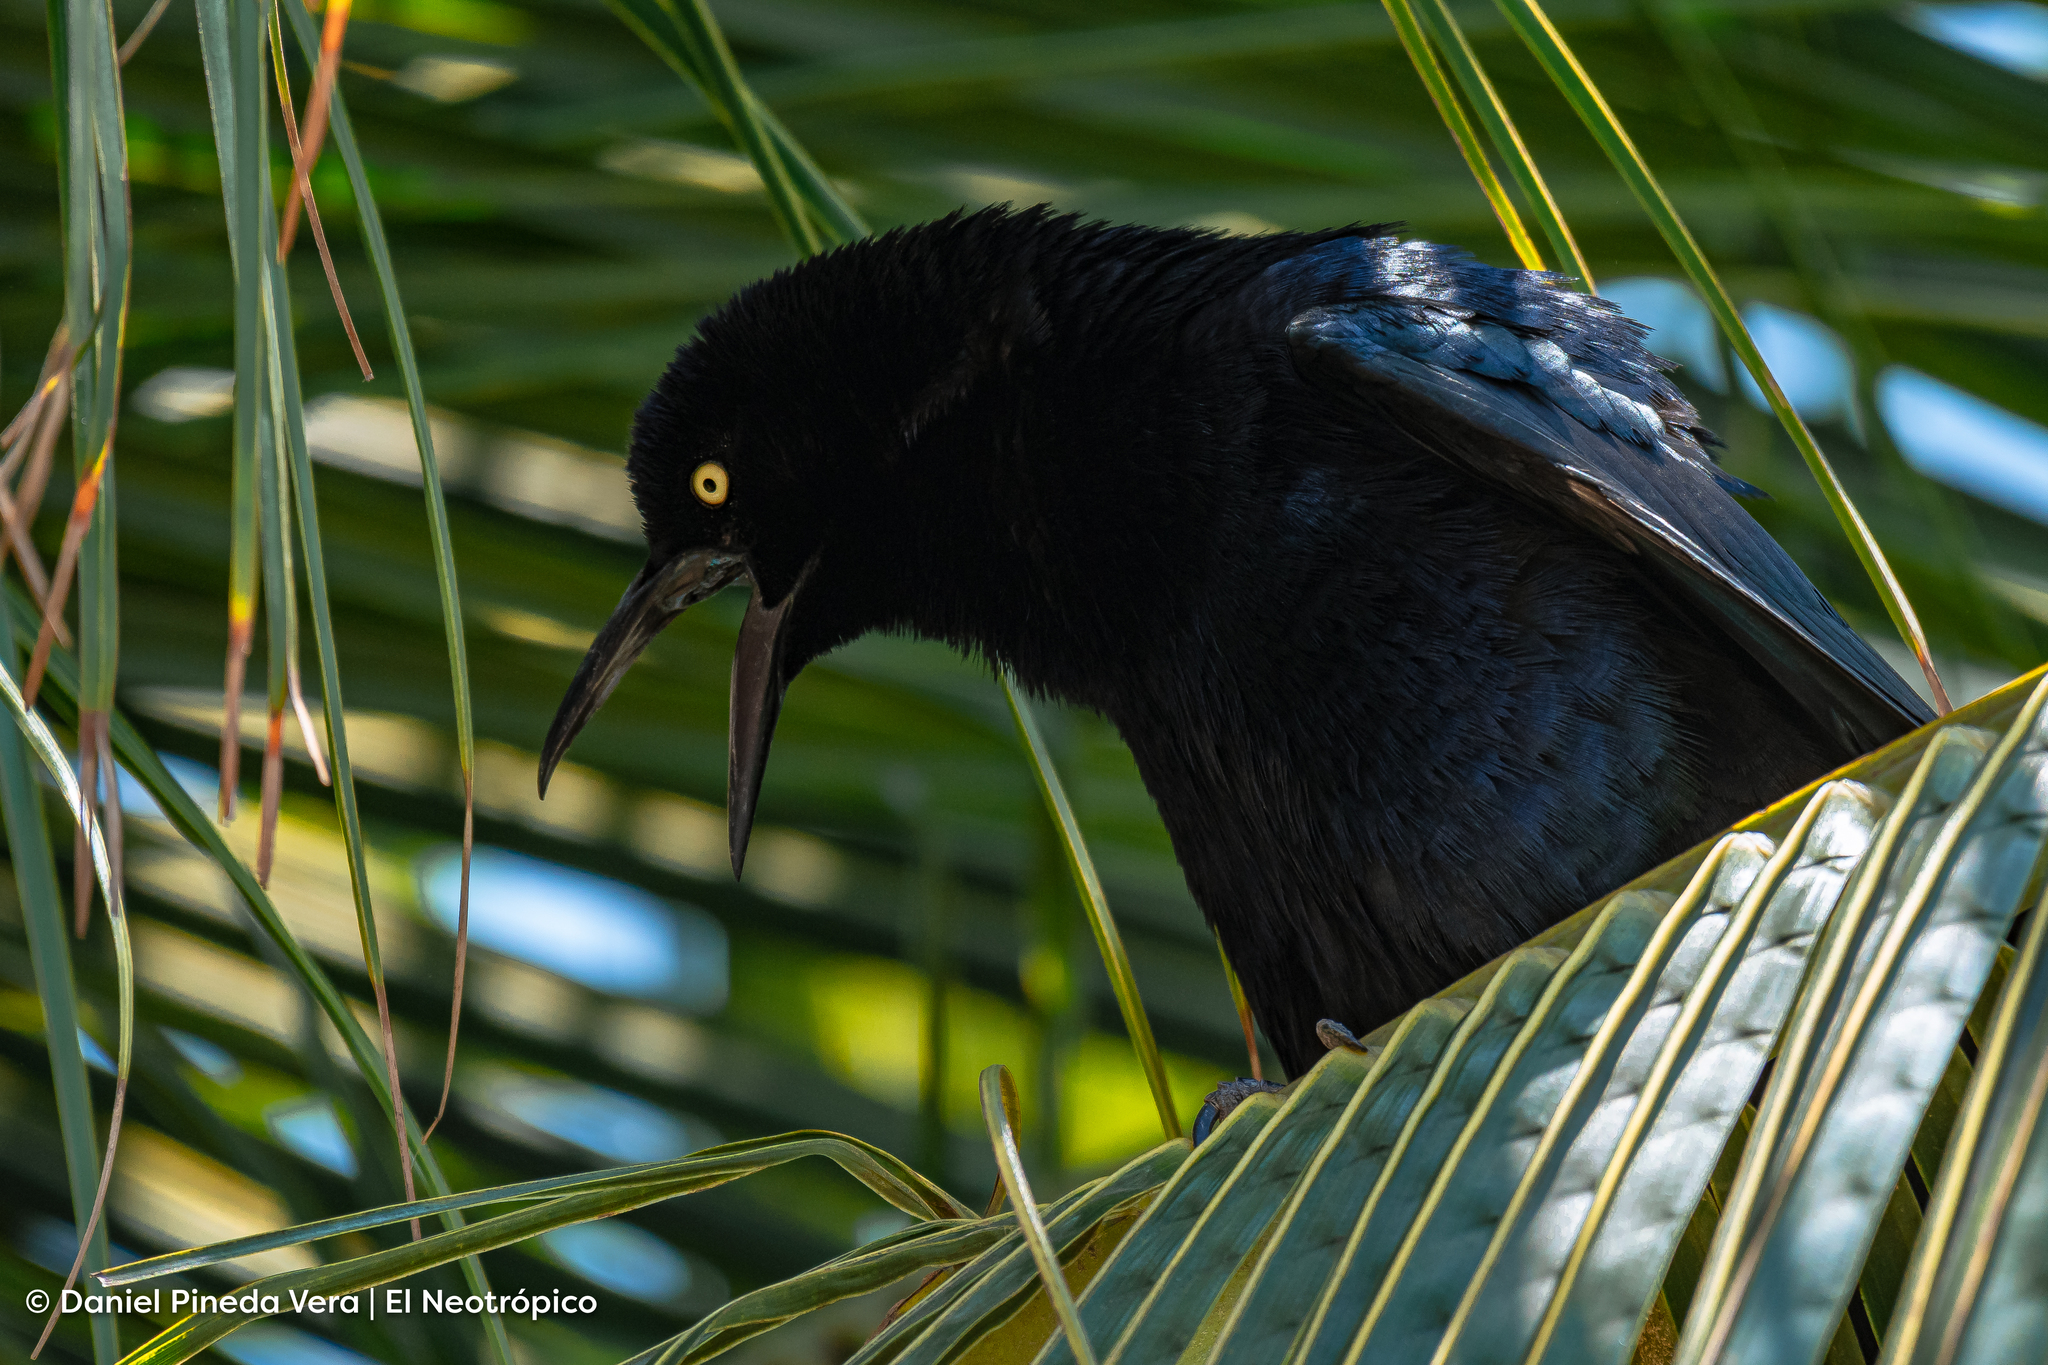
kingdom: Animalia
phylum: Chordata
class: Aves
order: Passeriformes
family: Icteridae
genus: Quiscalus
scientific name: Quiscalus mexicanus
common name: Great-tailed grackle
